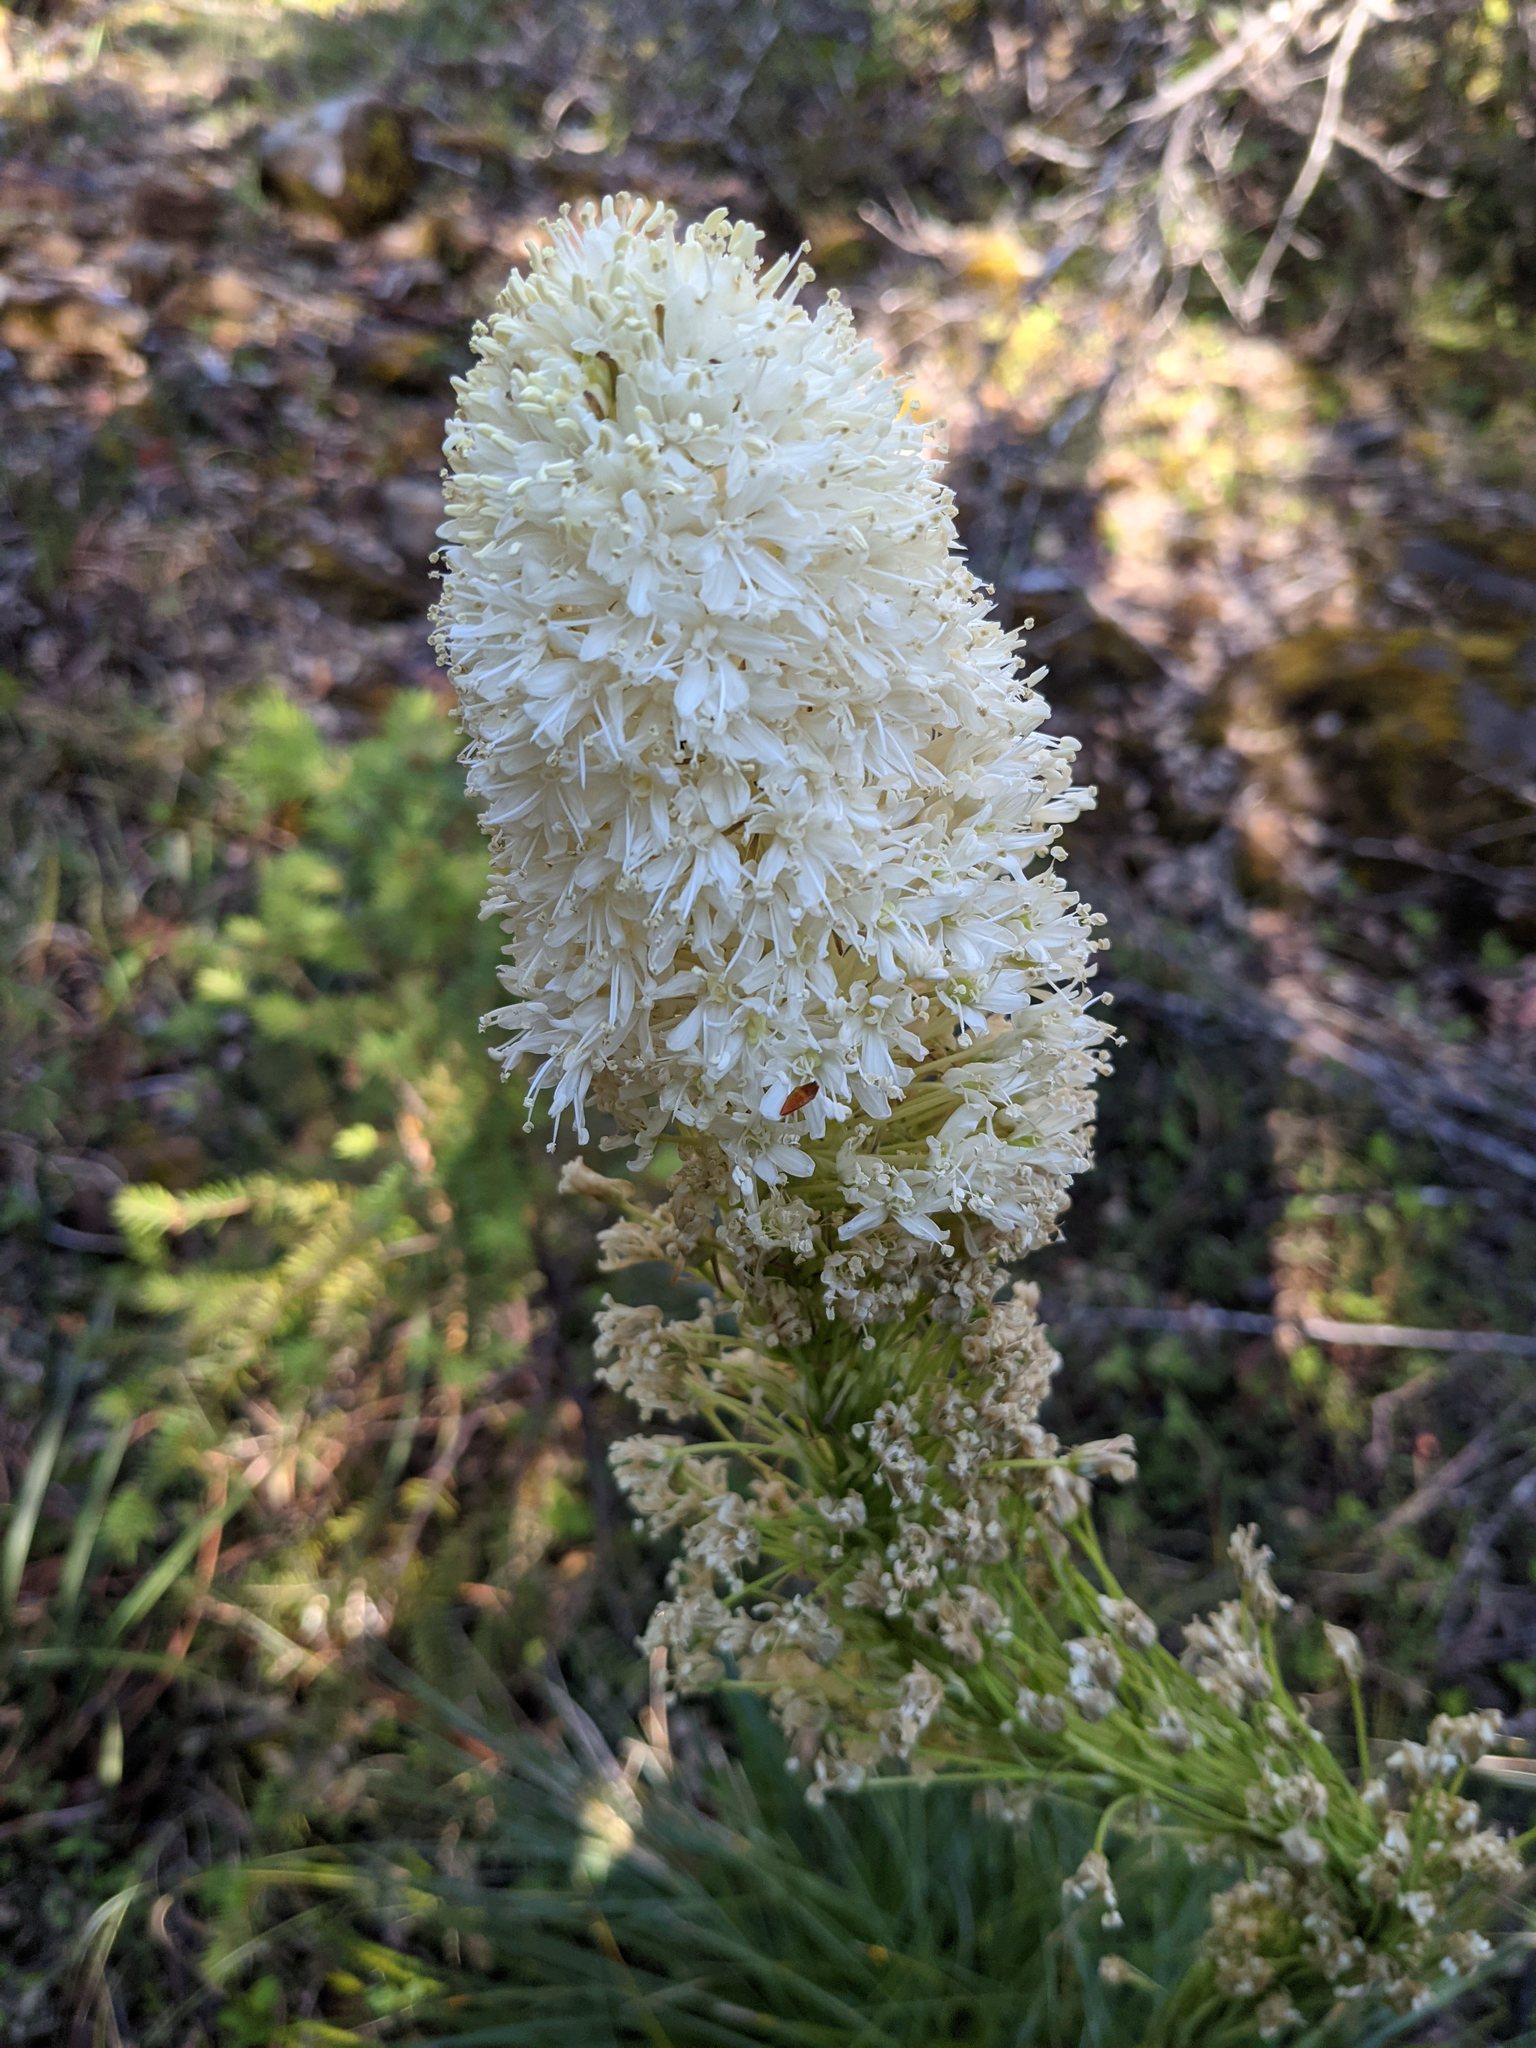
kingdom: Plantae
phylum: Tracheophyta
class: Liliopsida
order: Liliales
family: Melanthiaceae
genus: Xerophyllum
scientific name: Xerophyllum tenax
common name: Bear-grass
